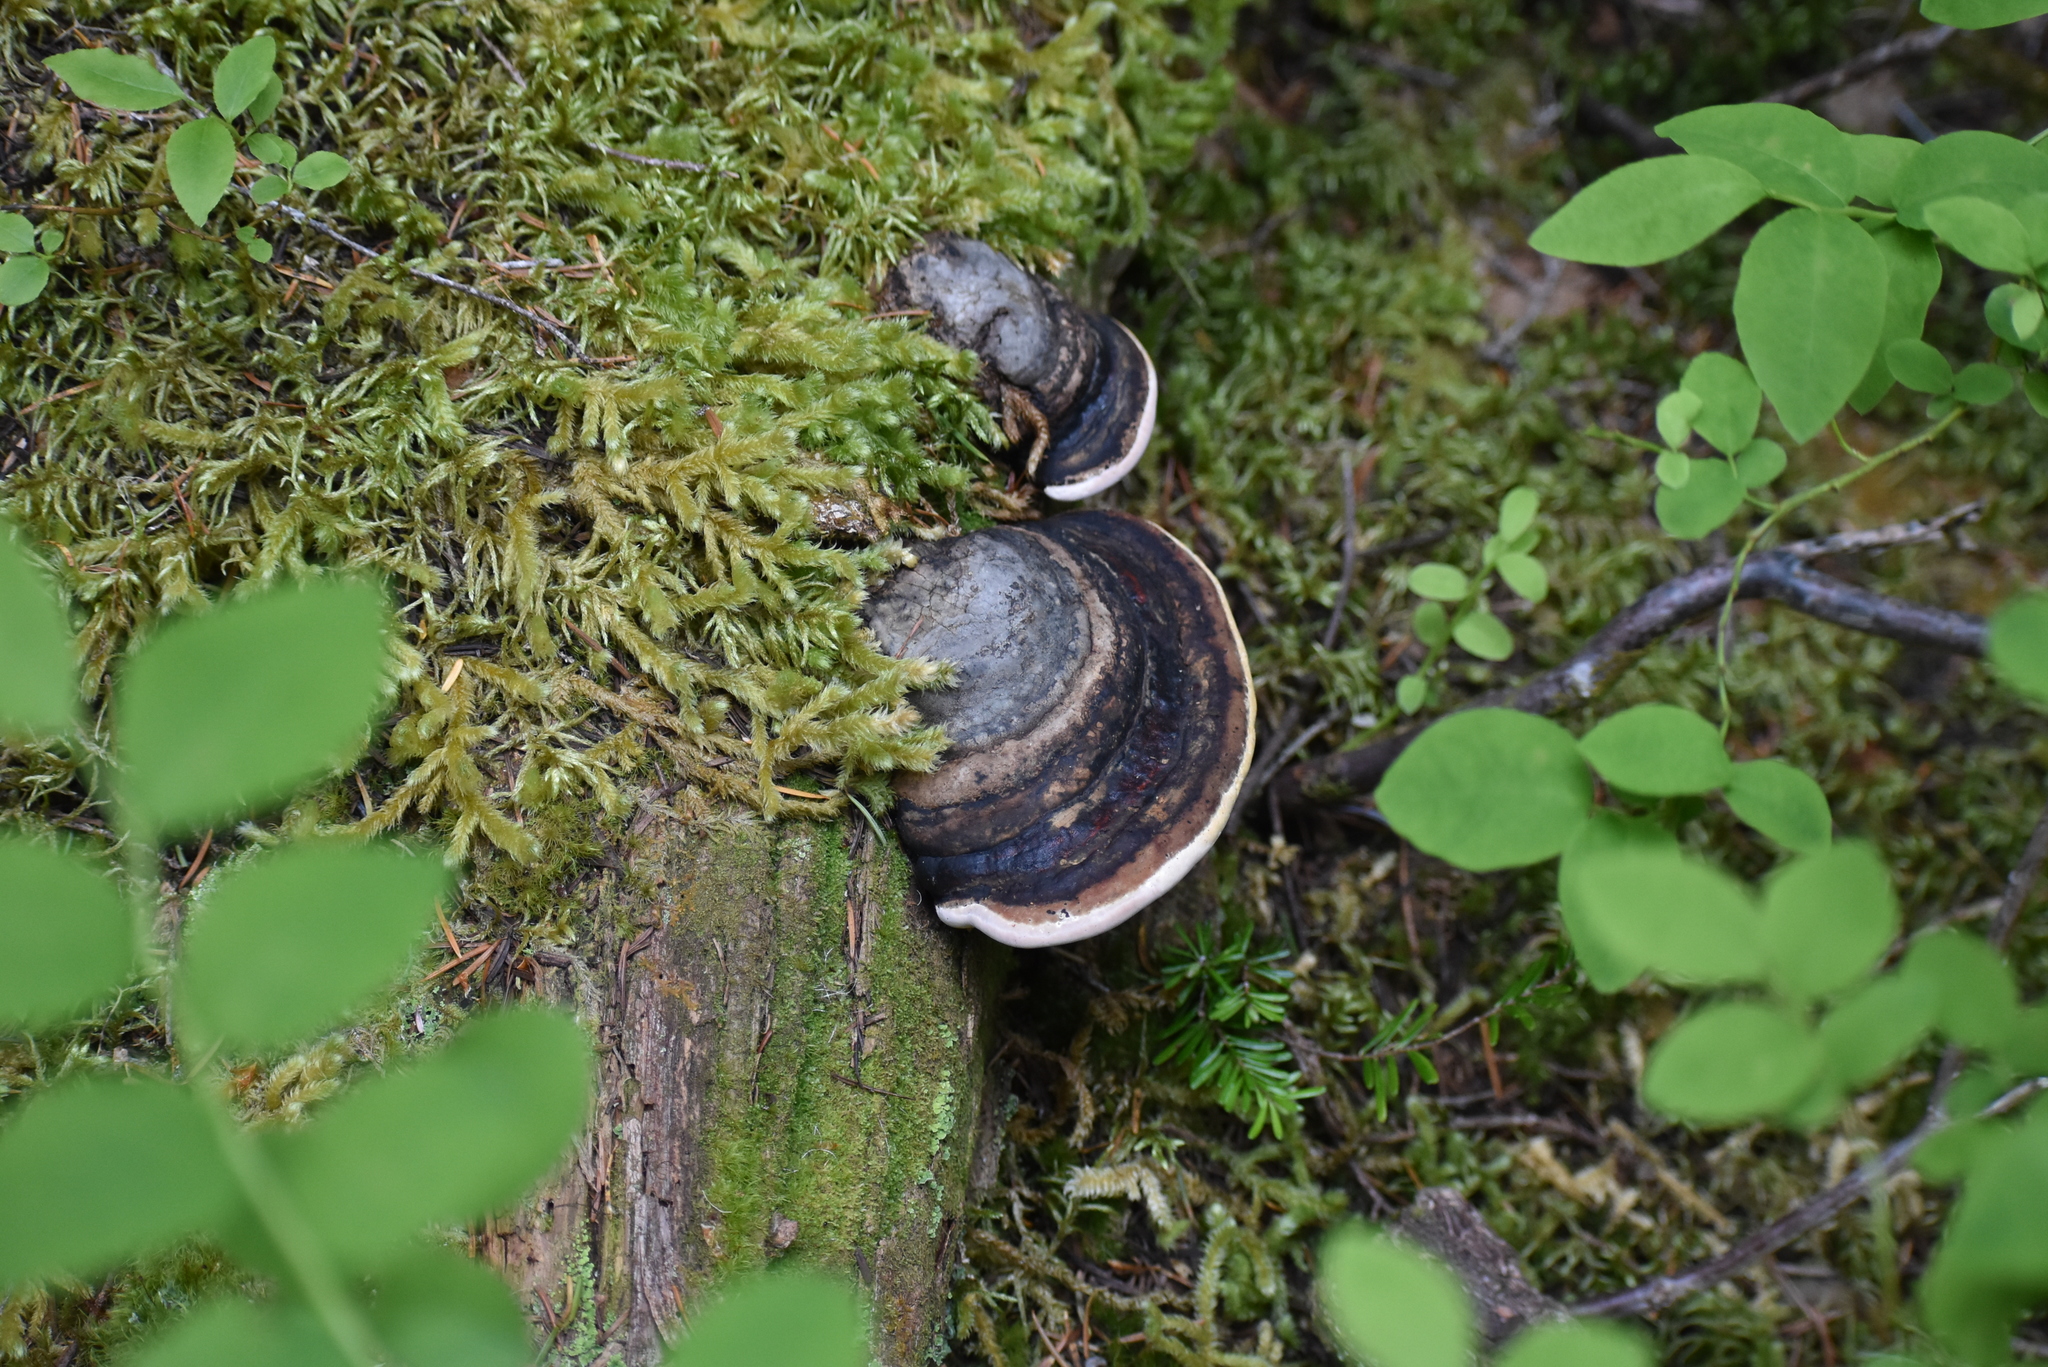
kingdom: Fungi
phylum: Basidiomycota
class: Agaricomycetes
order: Polyporales
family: Fomitopsidaceae
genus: Fomitopsis
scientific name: Fomitopsis ochracea
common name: American brown fomitopsis
